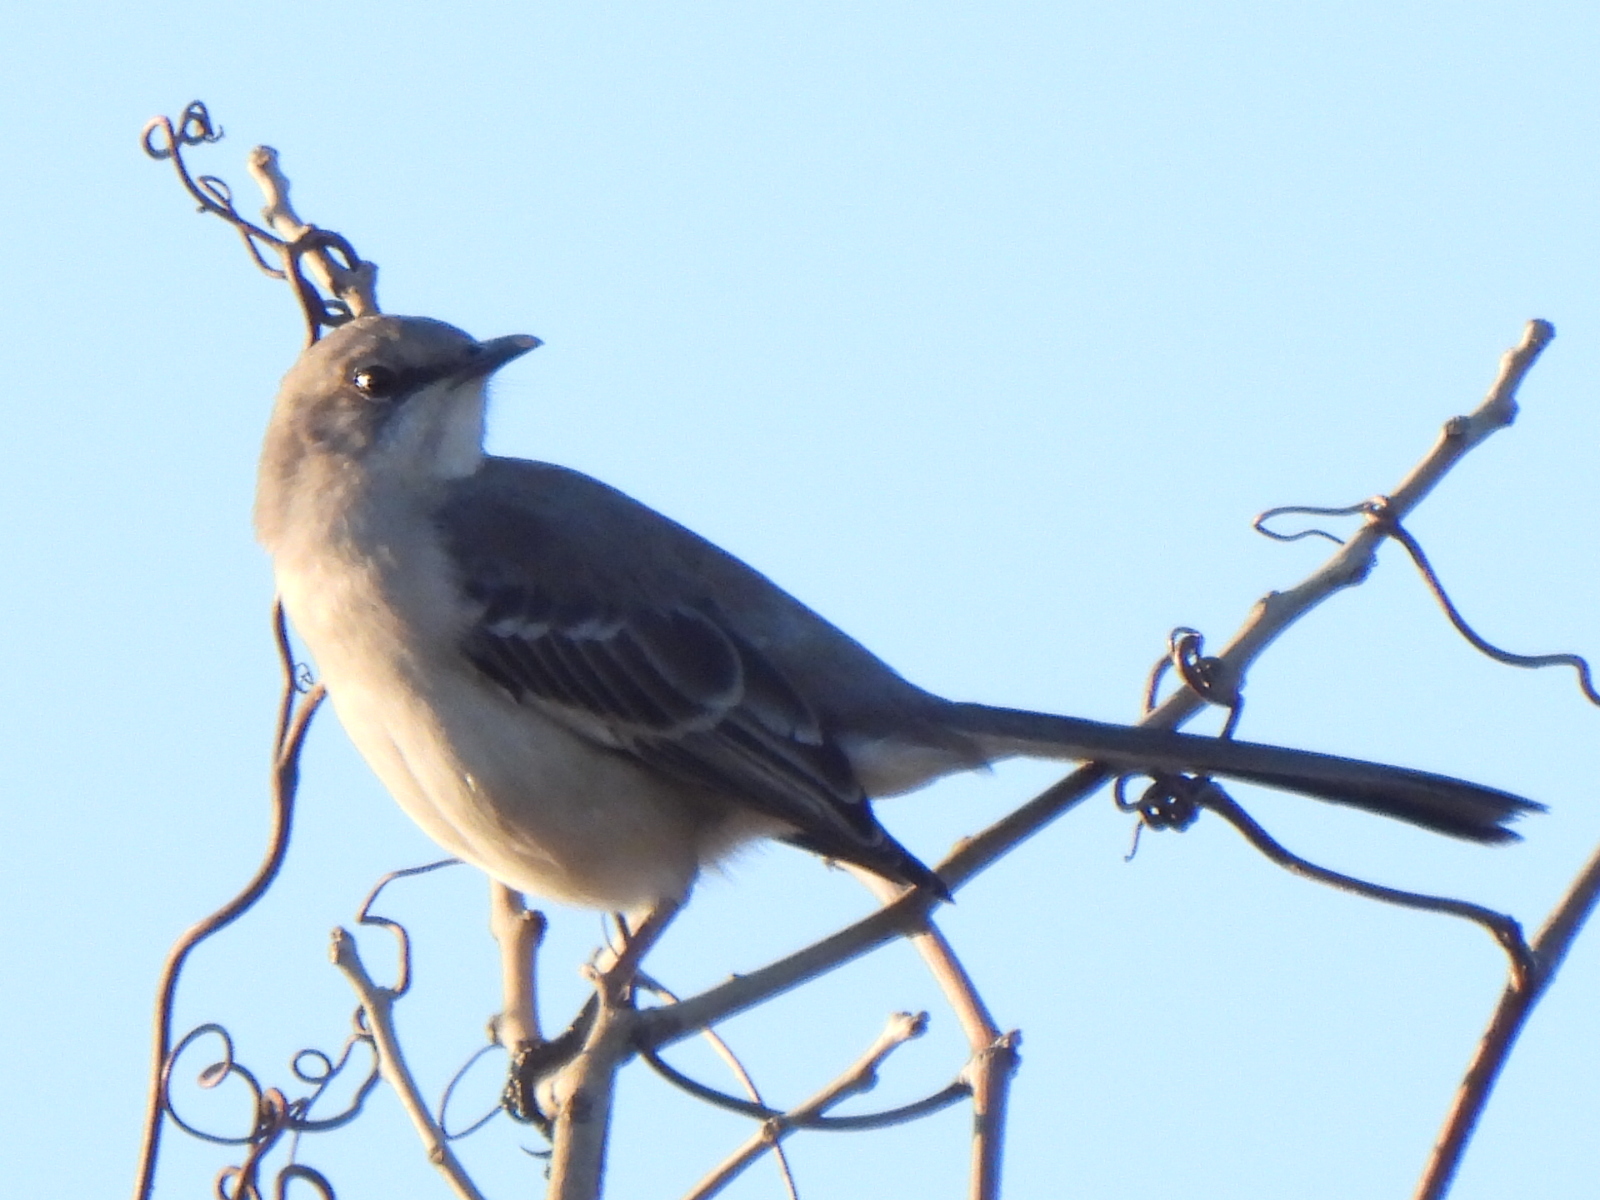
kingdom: Animalia
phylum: Chordata
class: Aves
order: Passeriformes
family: Mimidae
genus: Mimus
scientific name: Mimus polyglottos
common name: Northern mockingbird
